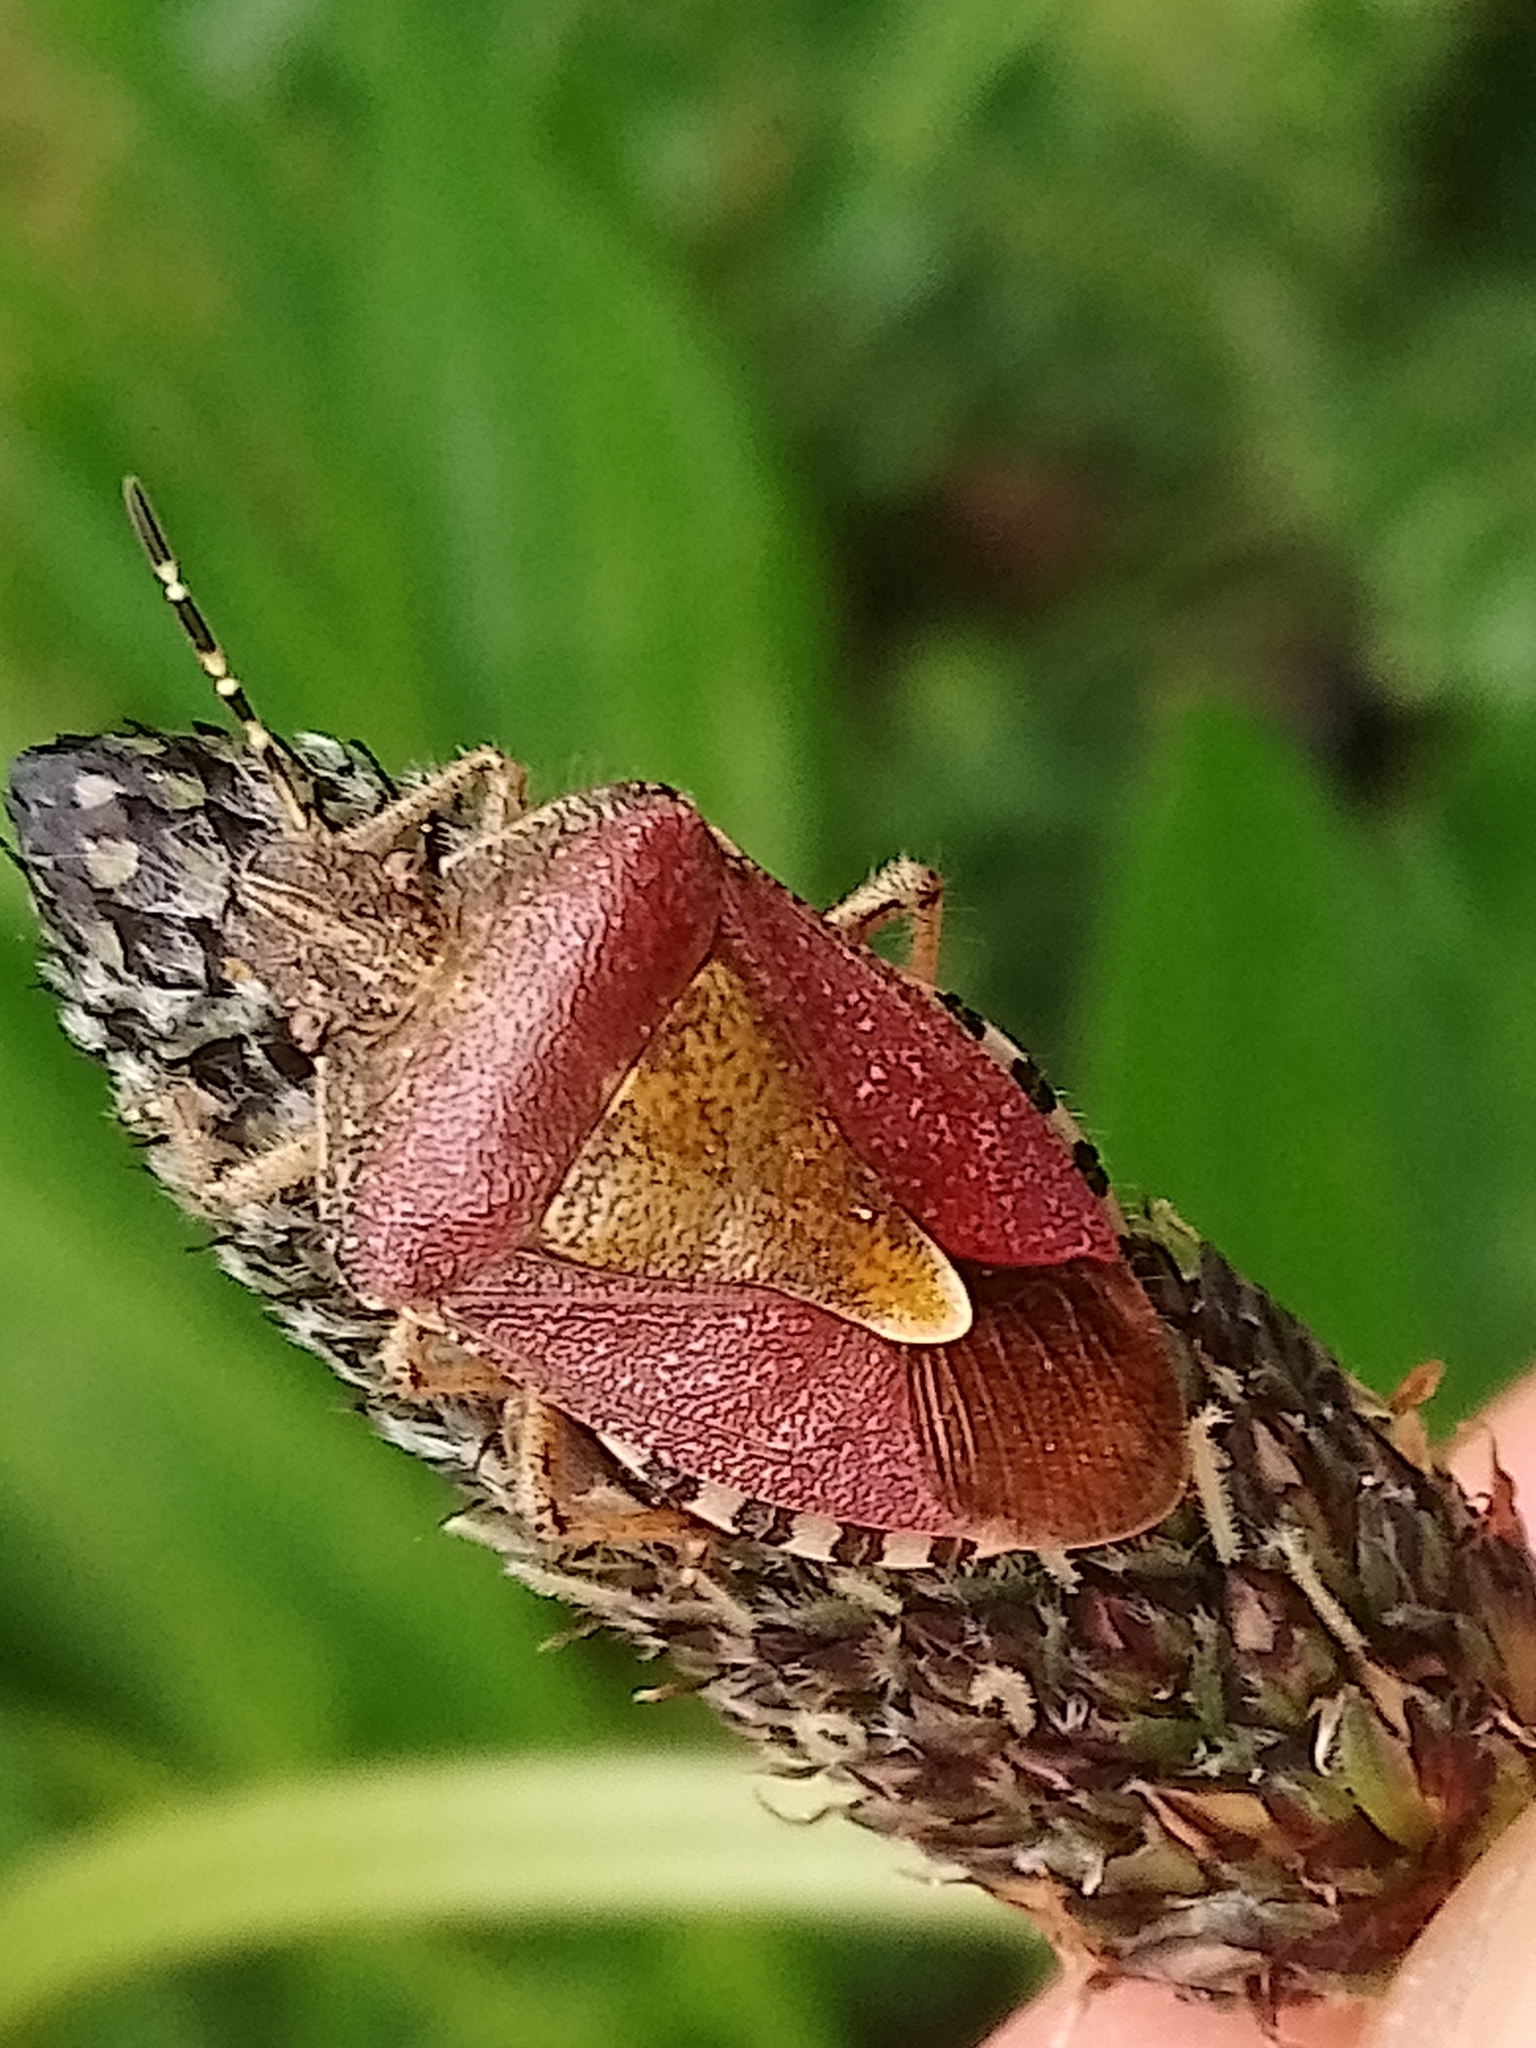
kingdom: Animalia
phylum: Arthropoda
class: Insecta
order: Hemiptera
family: Pentatomidae
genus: Dolycoris
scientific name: Dolycoris baccarum
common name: Sloe bug
